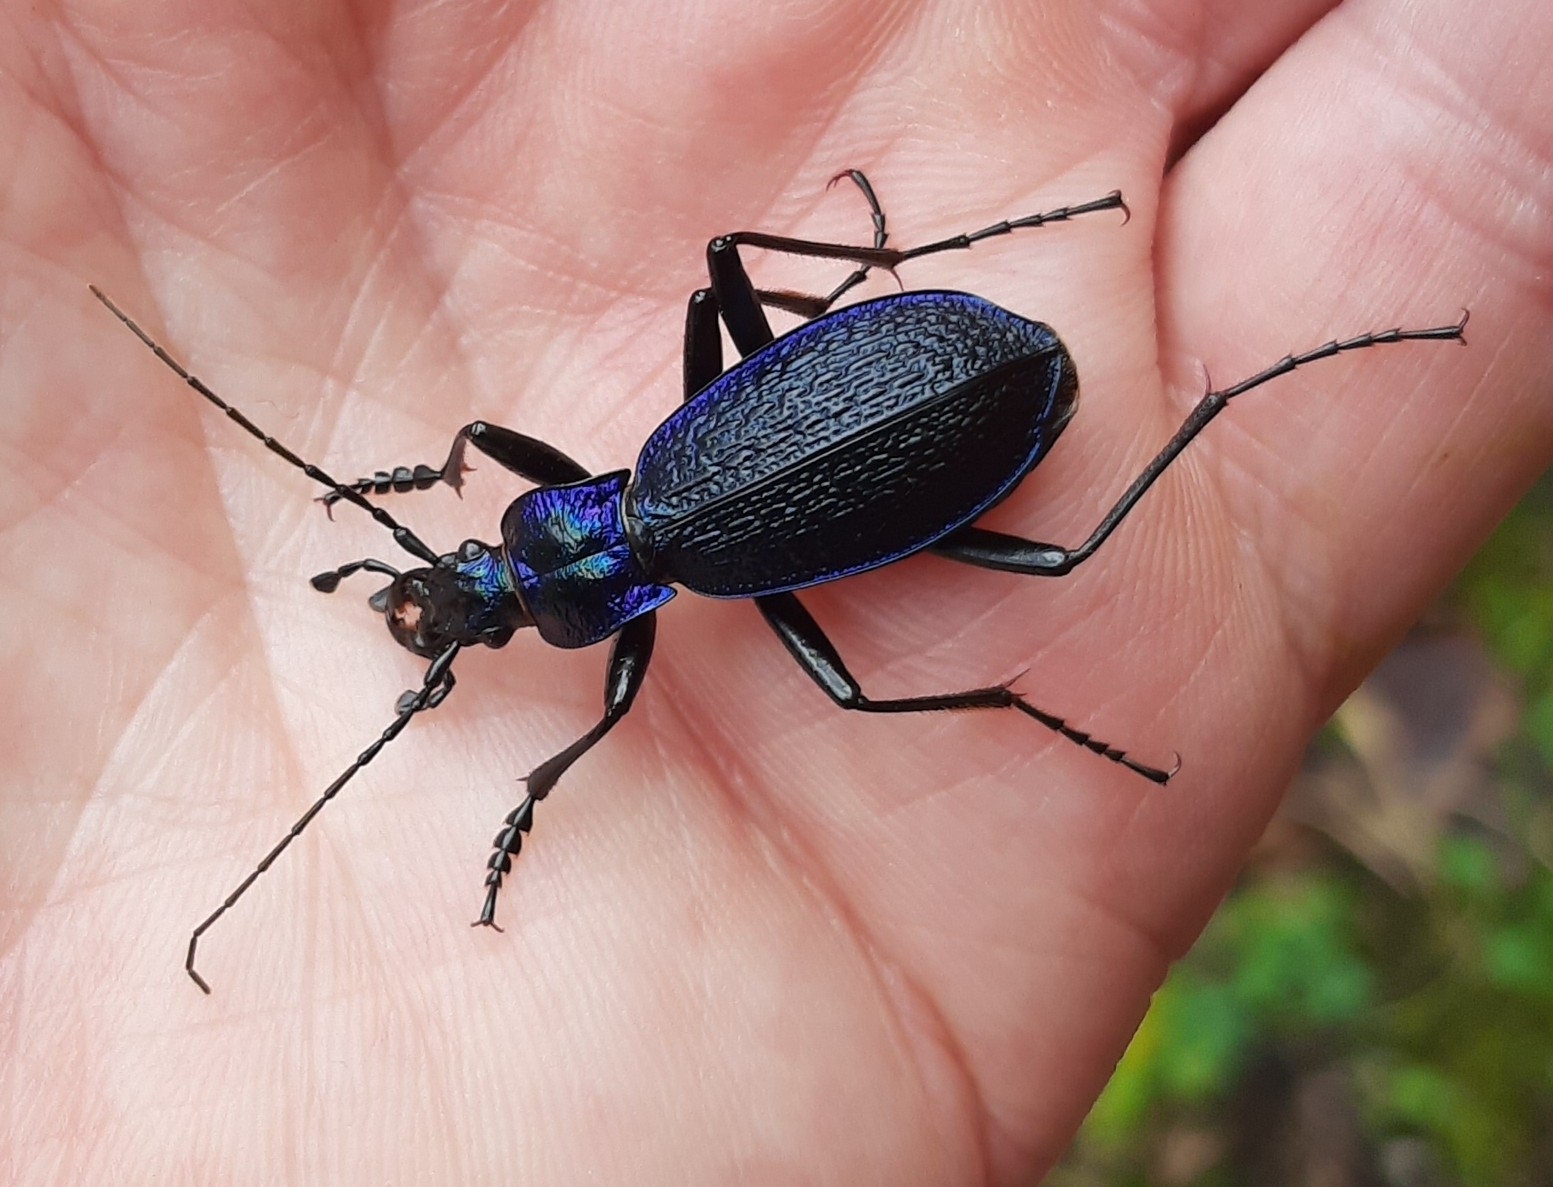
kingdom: Animalia
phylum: Arthropoda
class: Insecta
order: Coleoptera
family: Carabidae
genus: Carabus
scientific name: Carabus intricatus
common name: Blue ground beetle
